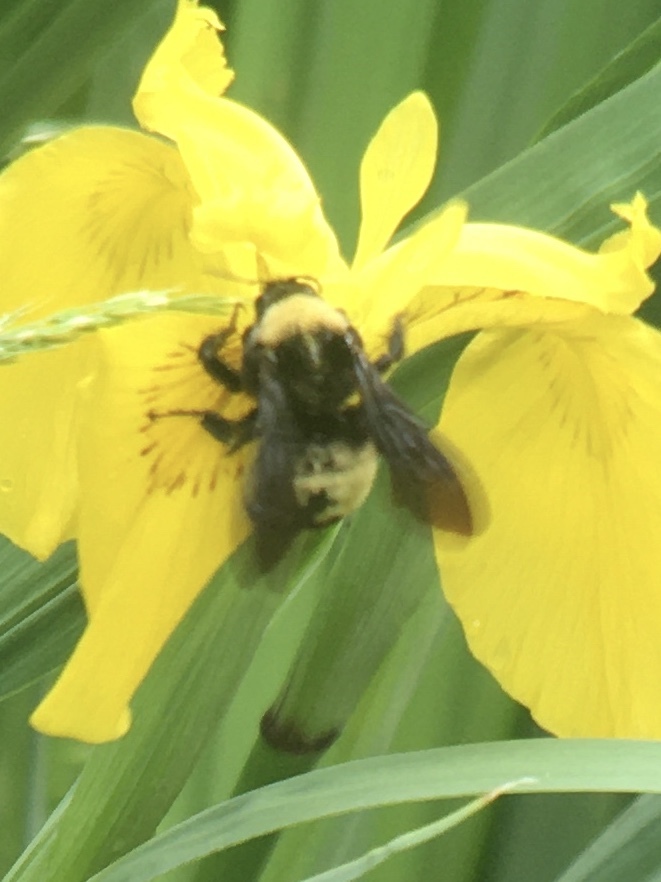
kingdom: Animalia
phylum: Arthropoda
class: Insecta
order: Hymenoptera
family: Apidae
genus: Bombus
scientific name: Bombus pensylvanicus
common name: Bumble bee
